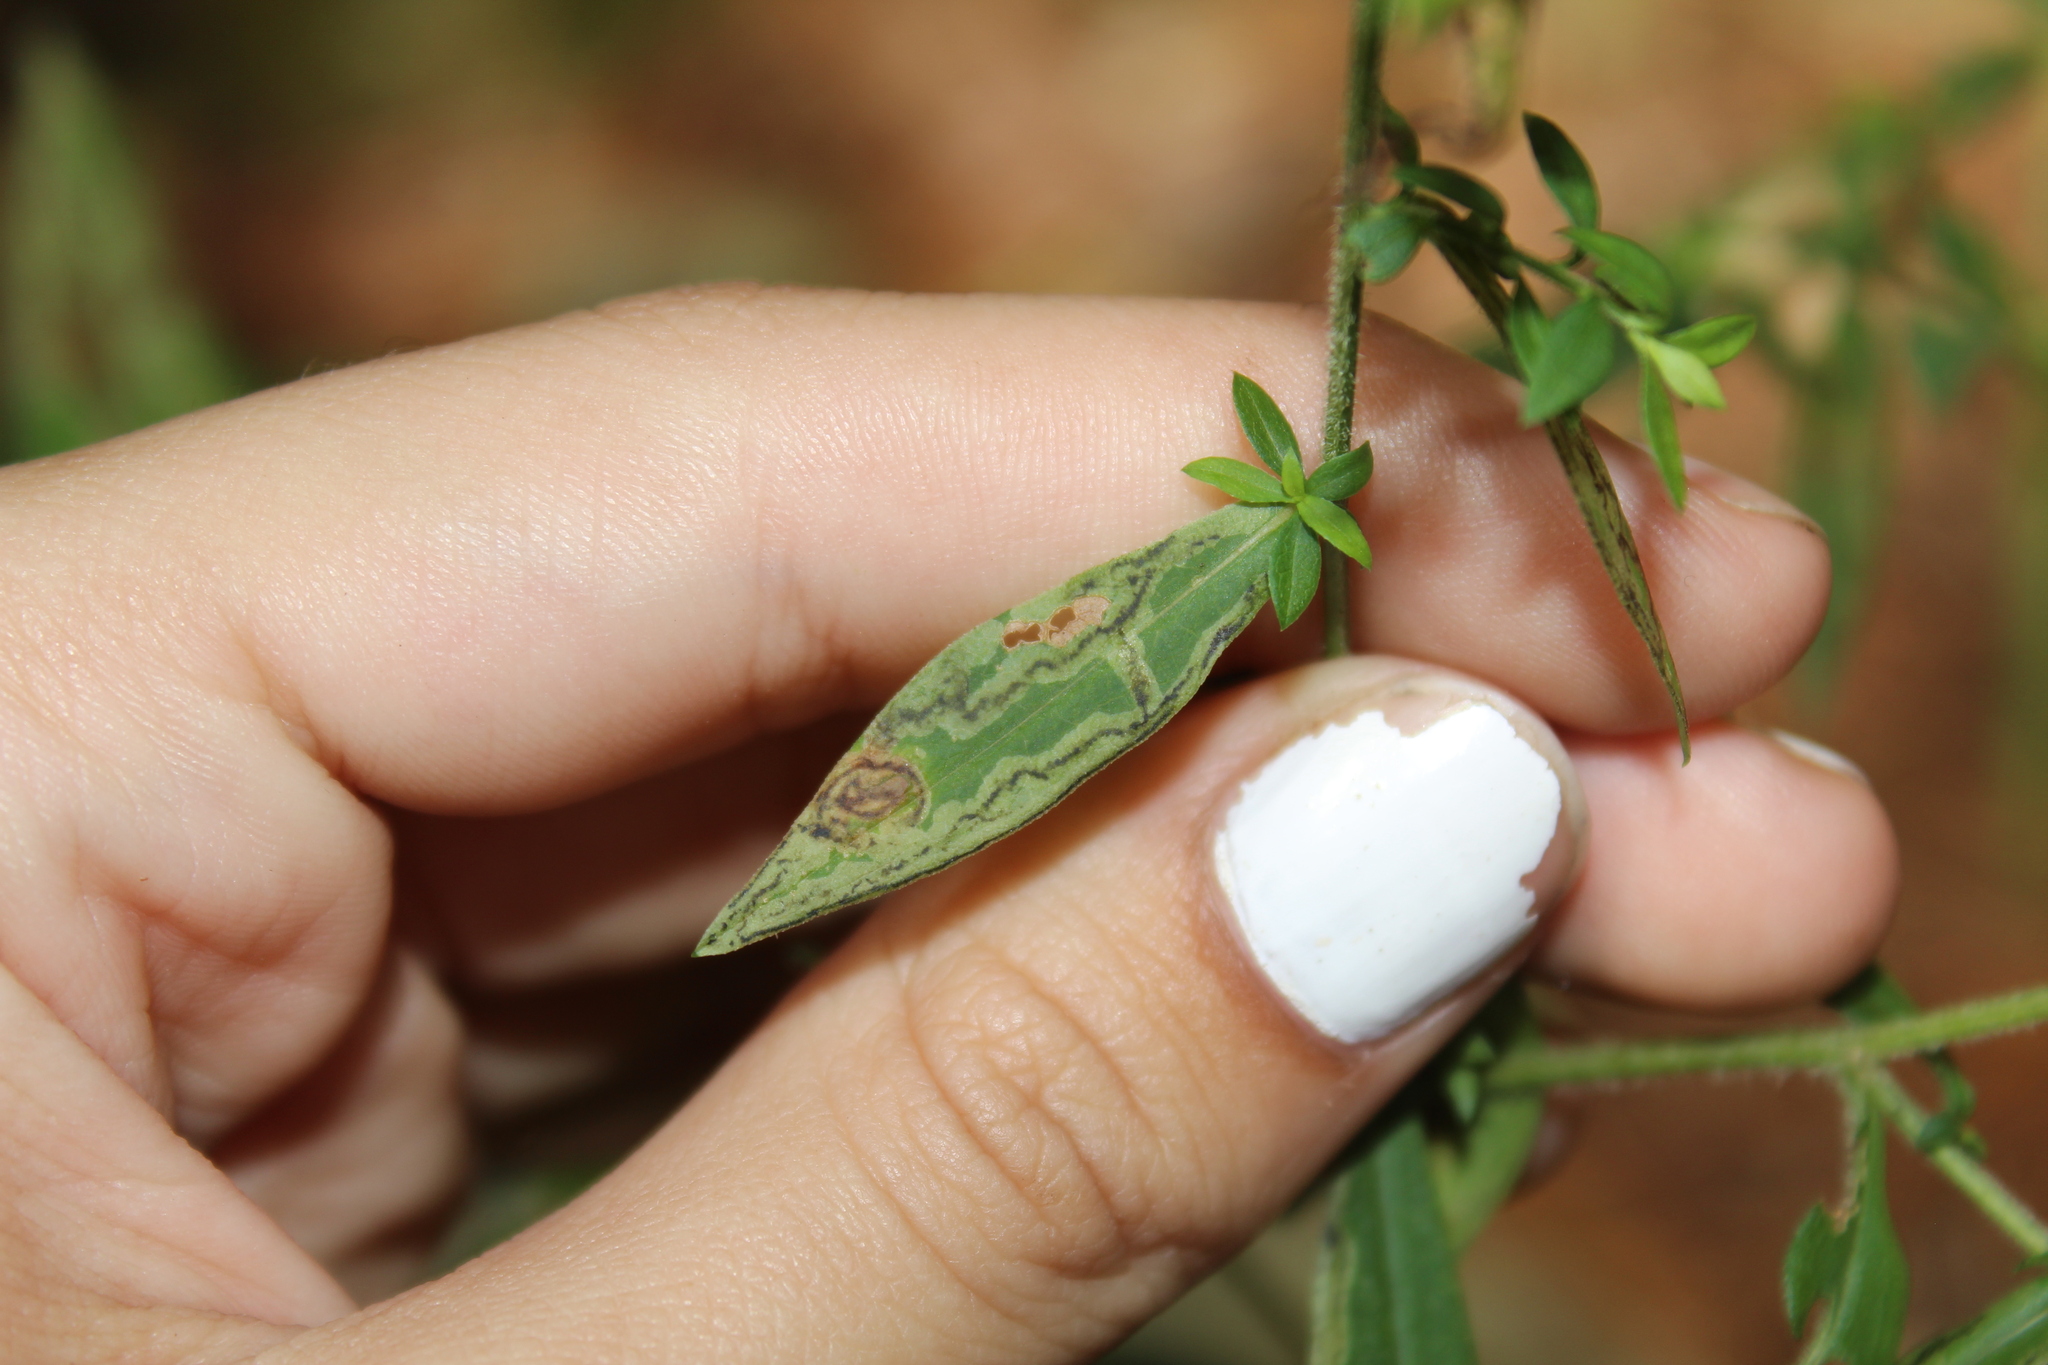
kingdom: Animalia
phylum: Arthropoda
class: Insecta
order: Diptera
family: Agromyzidae
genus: Liriomyza
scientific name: Liriomyza eupatorii
